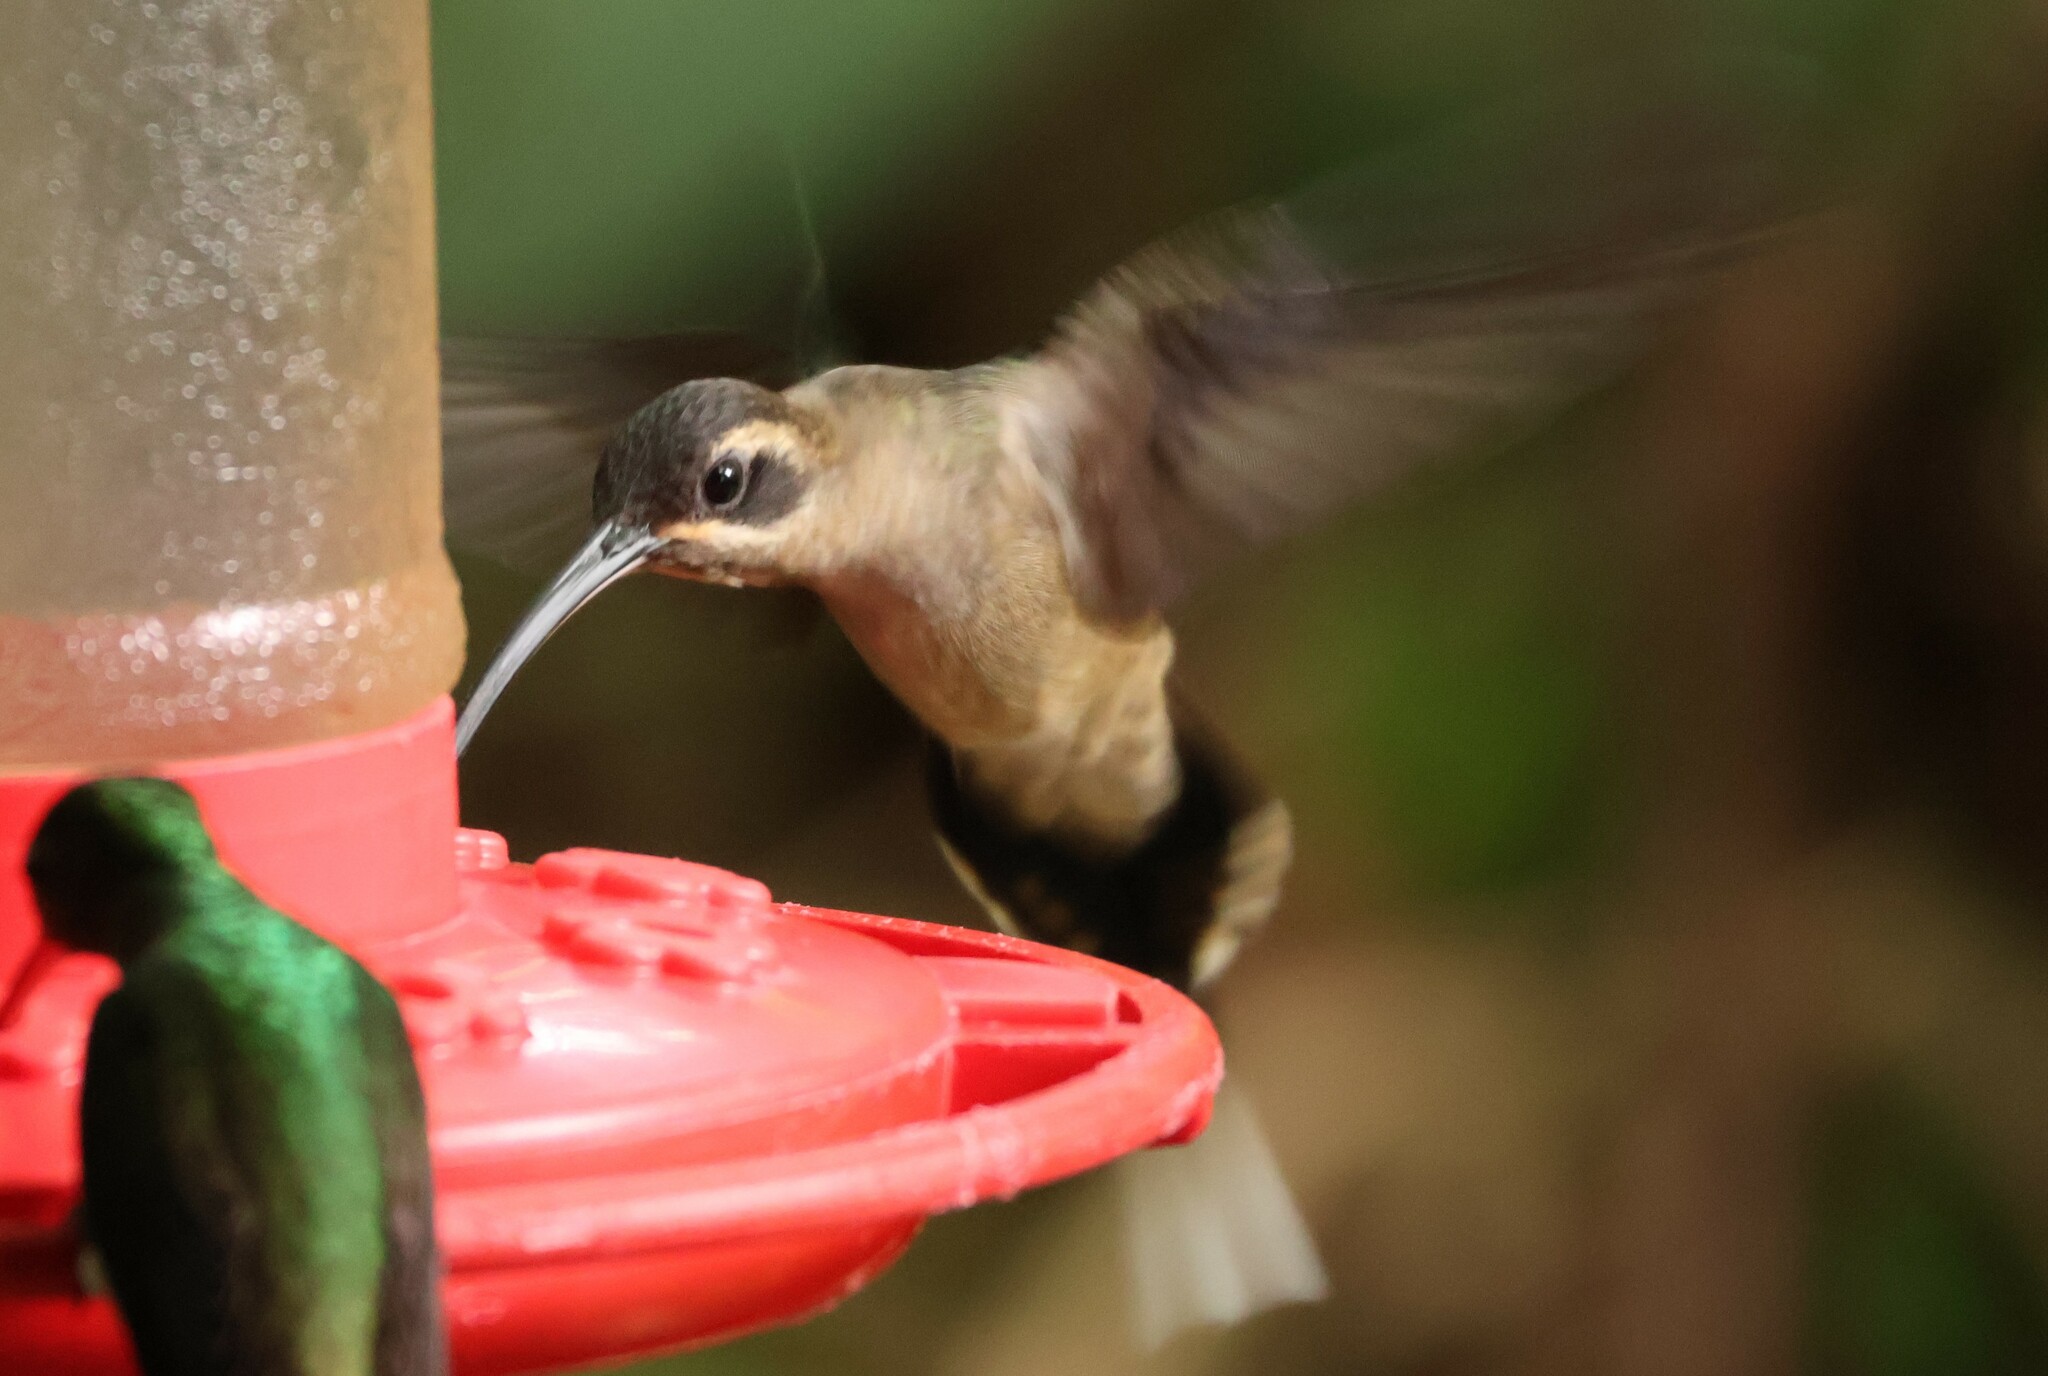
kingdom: Animalia
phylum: Chordata
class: Aves
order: Apodiformes
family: Trochilidae
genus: Phaethornis
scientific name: Phaethornis longirostris
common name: Long-billed hermit
